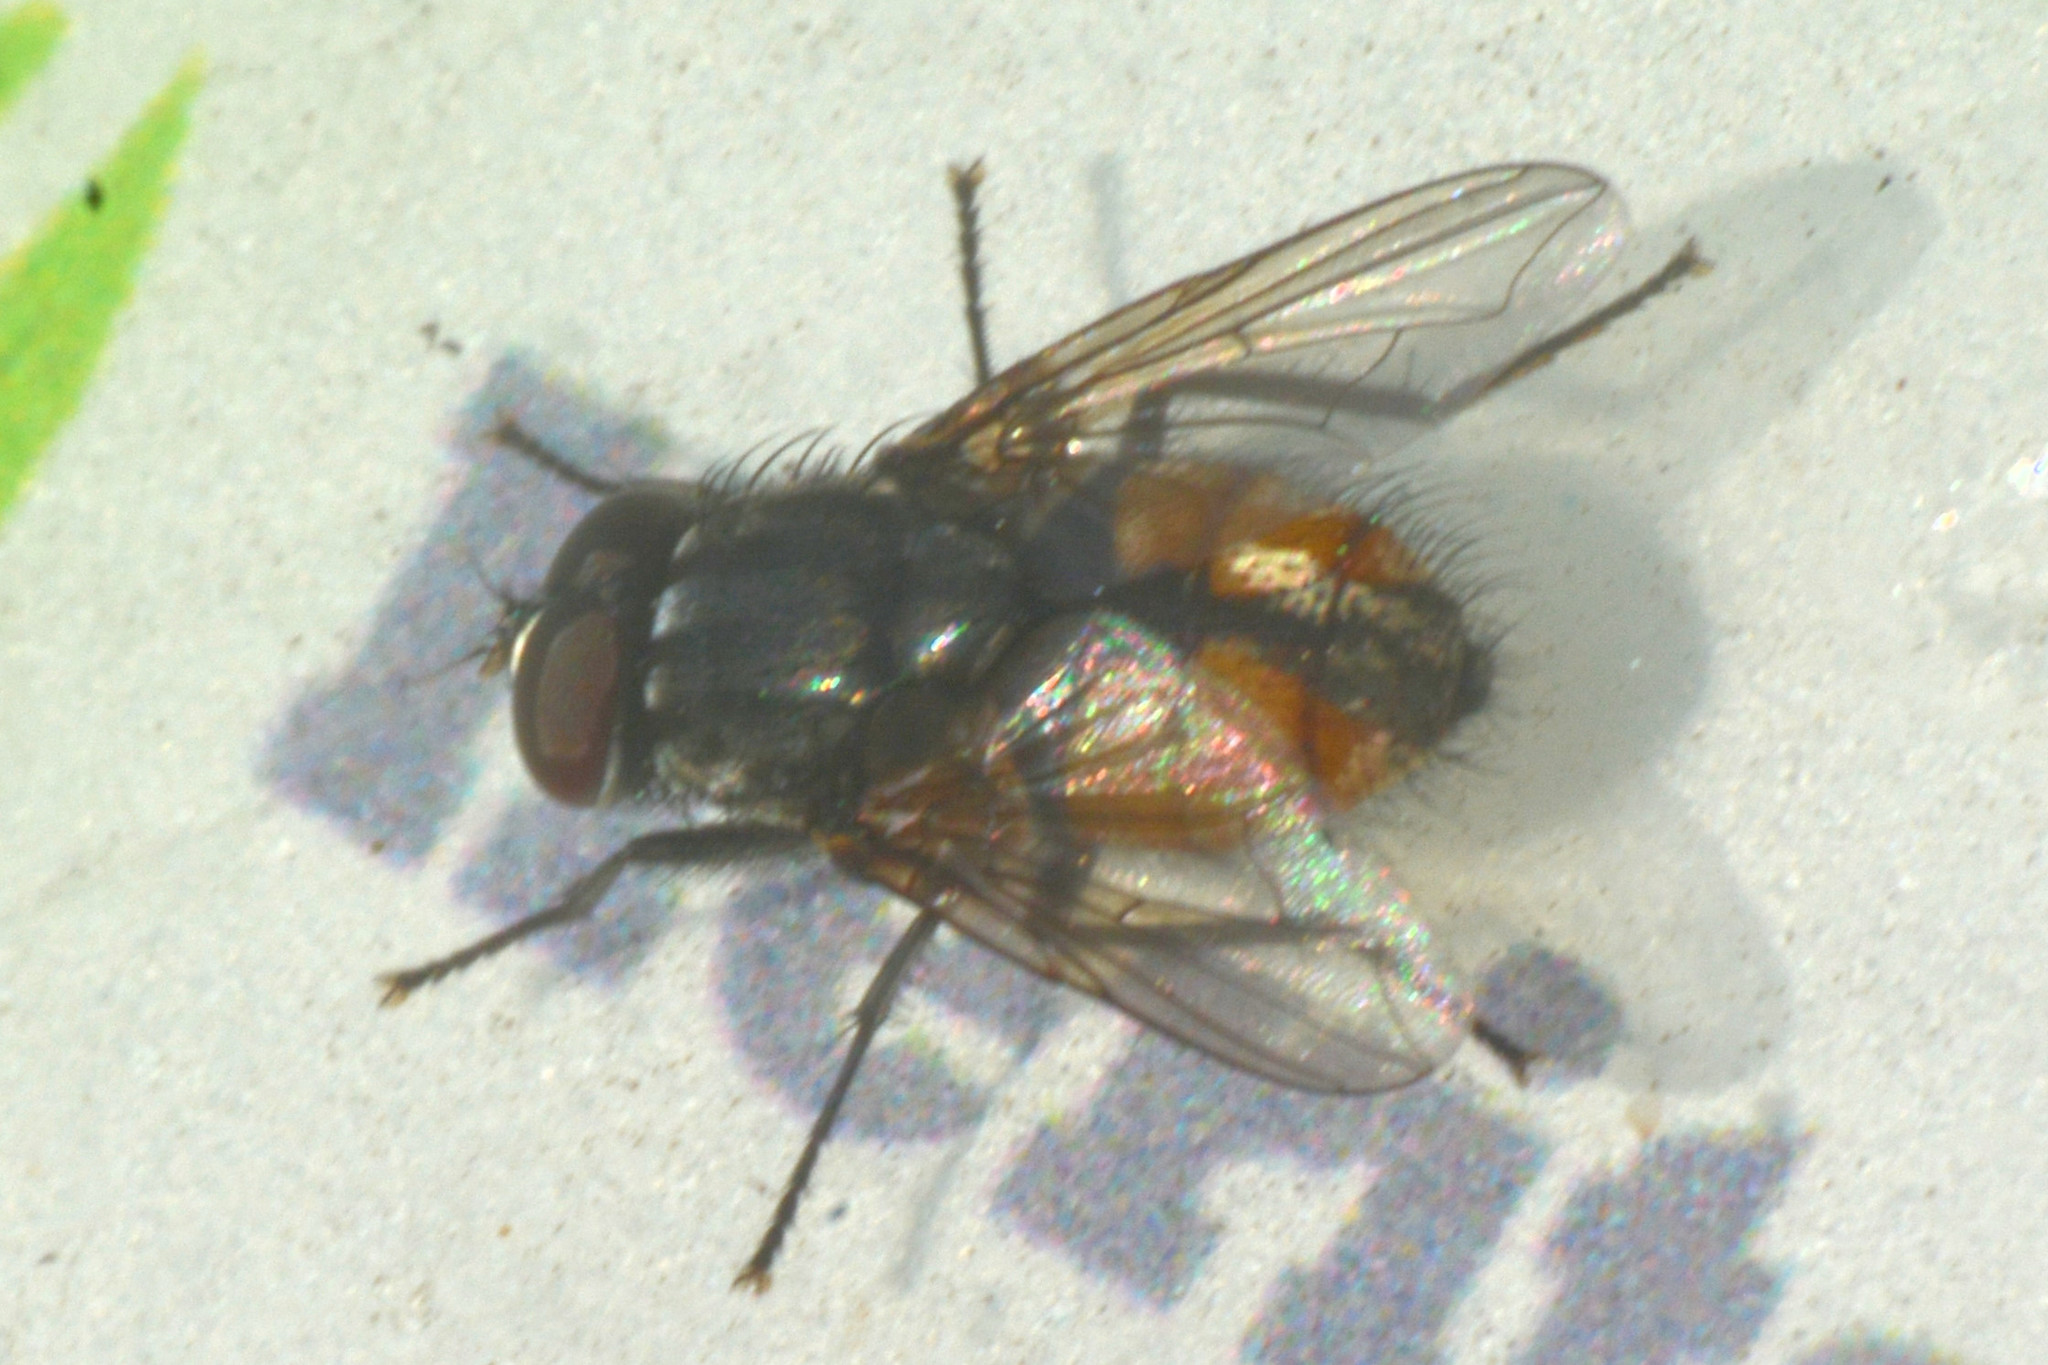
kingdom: Animalia
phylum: Arthropoda
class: Insecta
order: Diptera
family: Muscidae
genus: Musca
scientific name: Musca autumnalis
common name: Face fly
